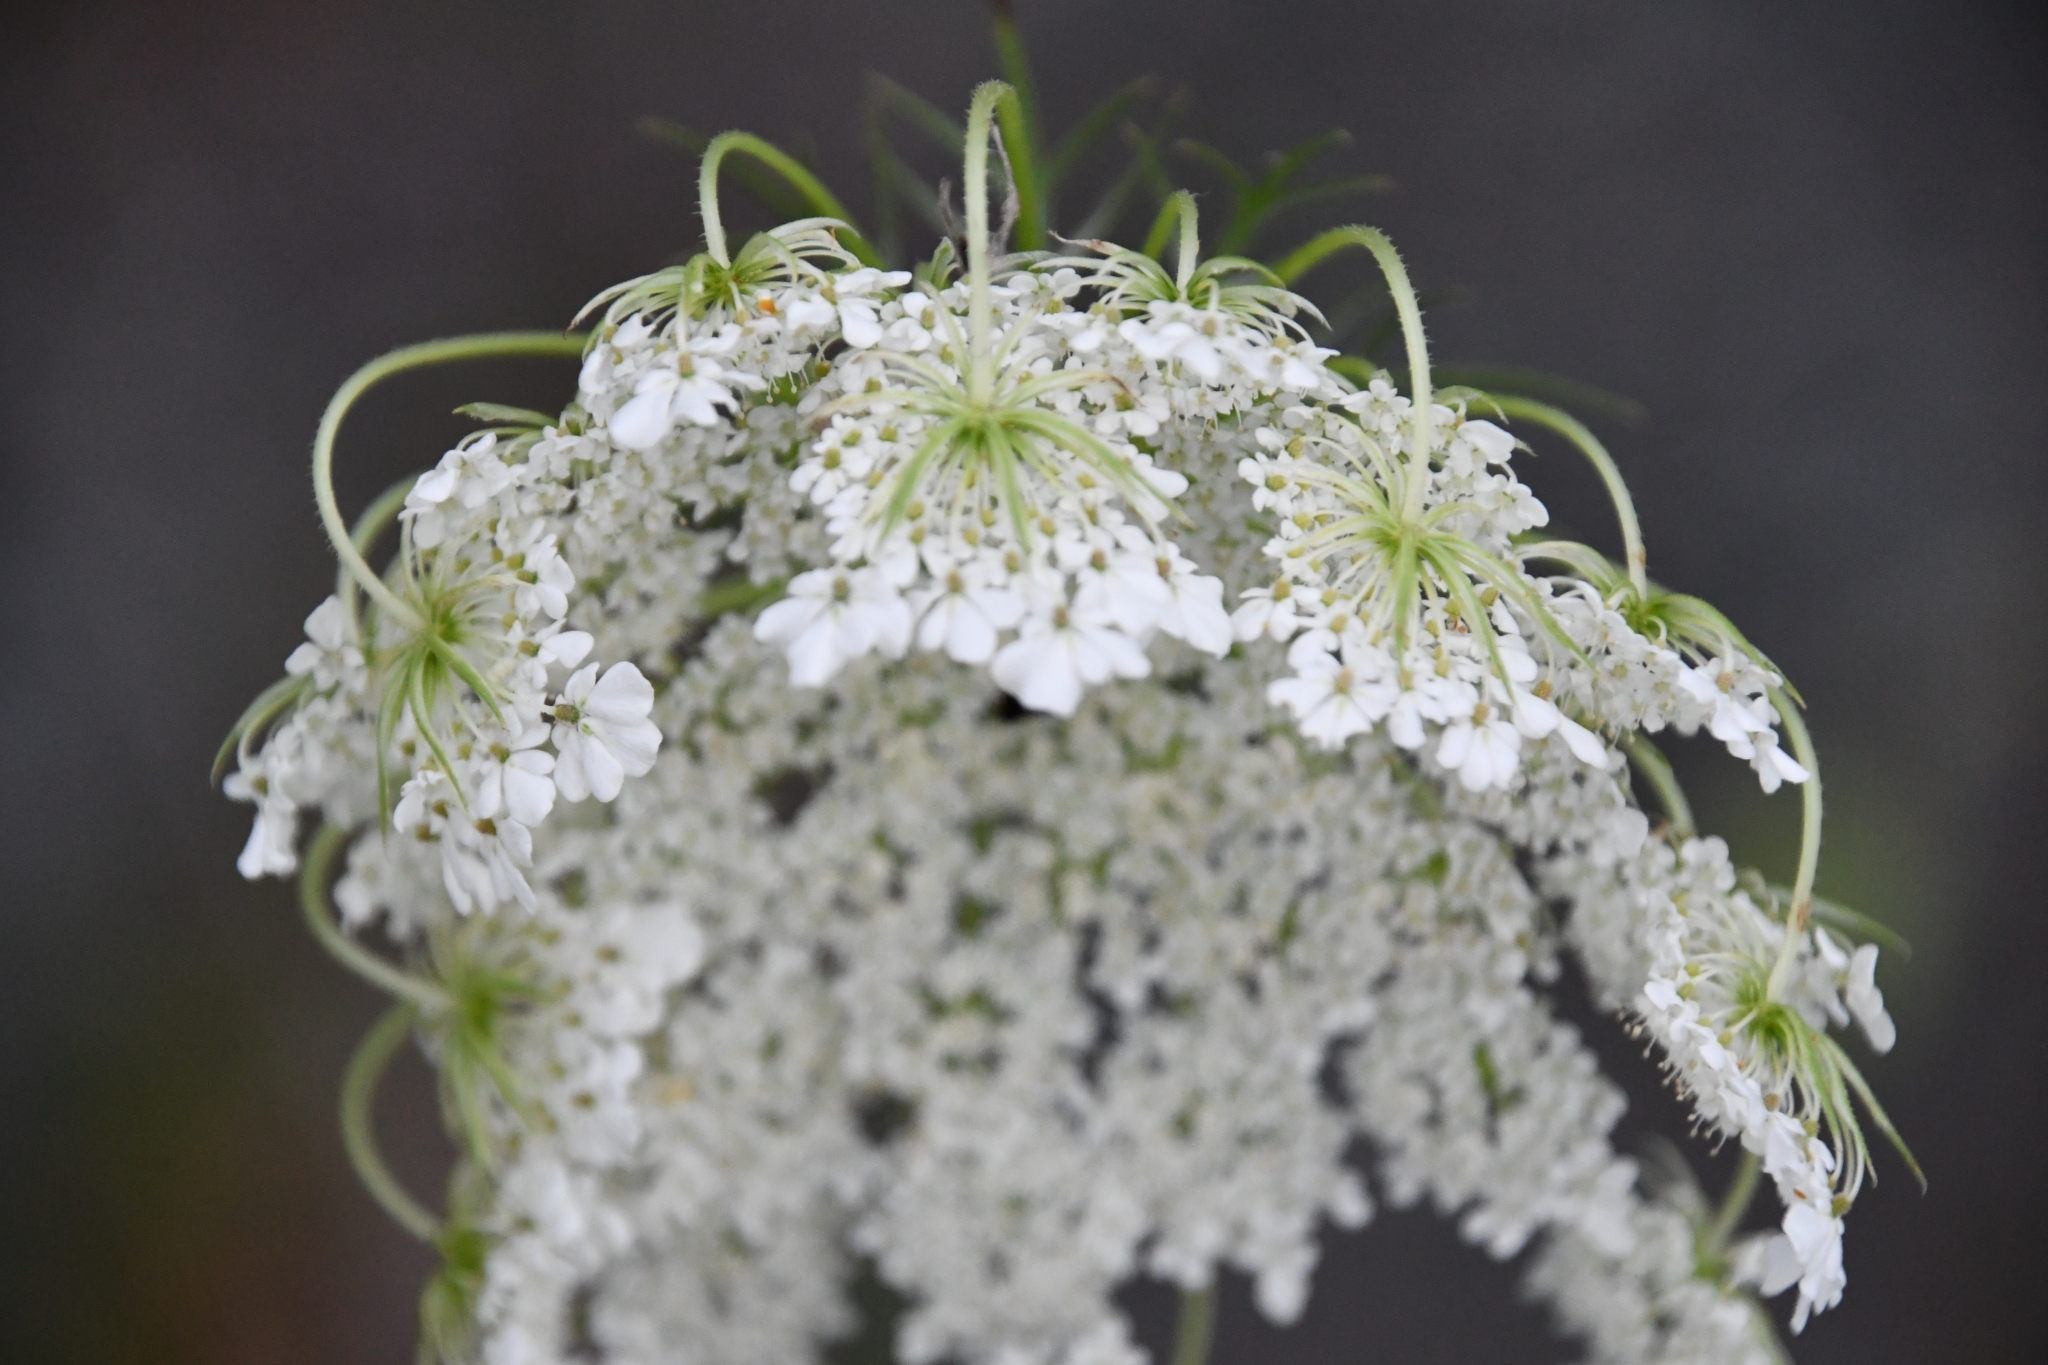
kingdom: Plantae
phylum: Tracheophyta
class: Magnoliopsida
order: Apiales
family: Apiaceae
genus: Daucus
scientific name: Daucus carota
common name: Wild carrot
